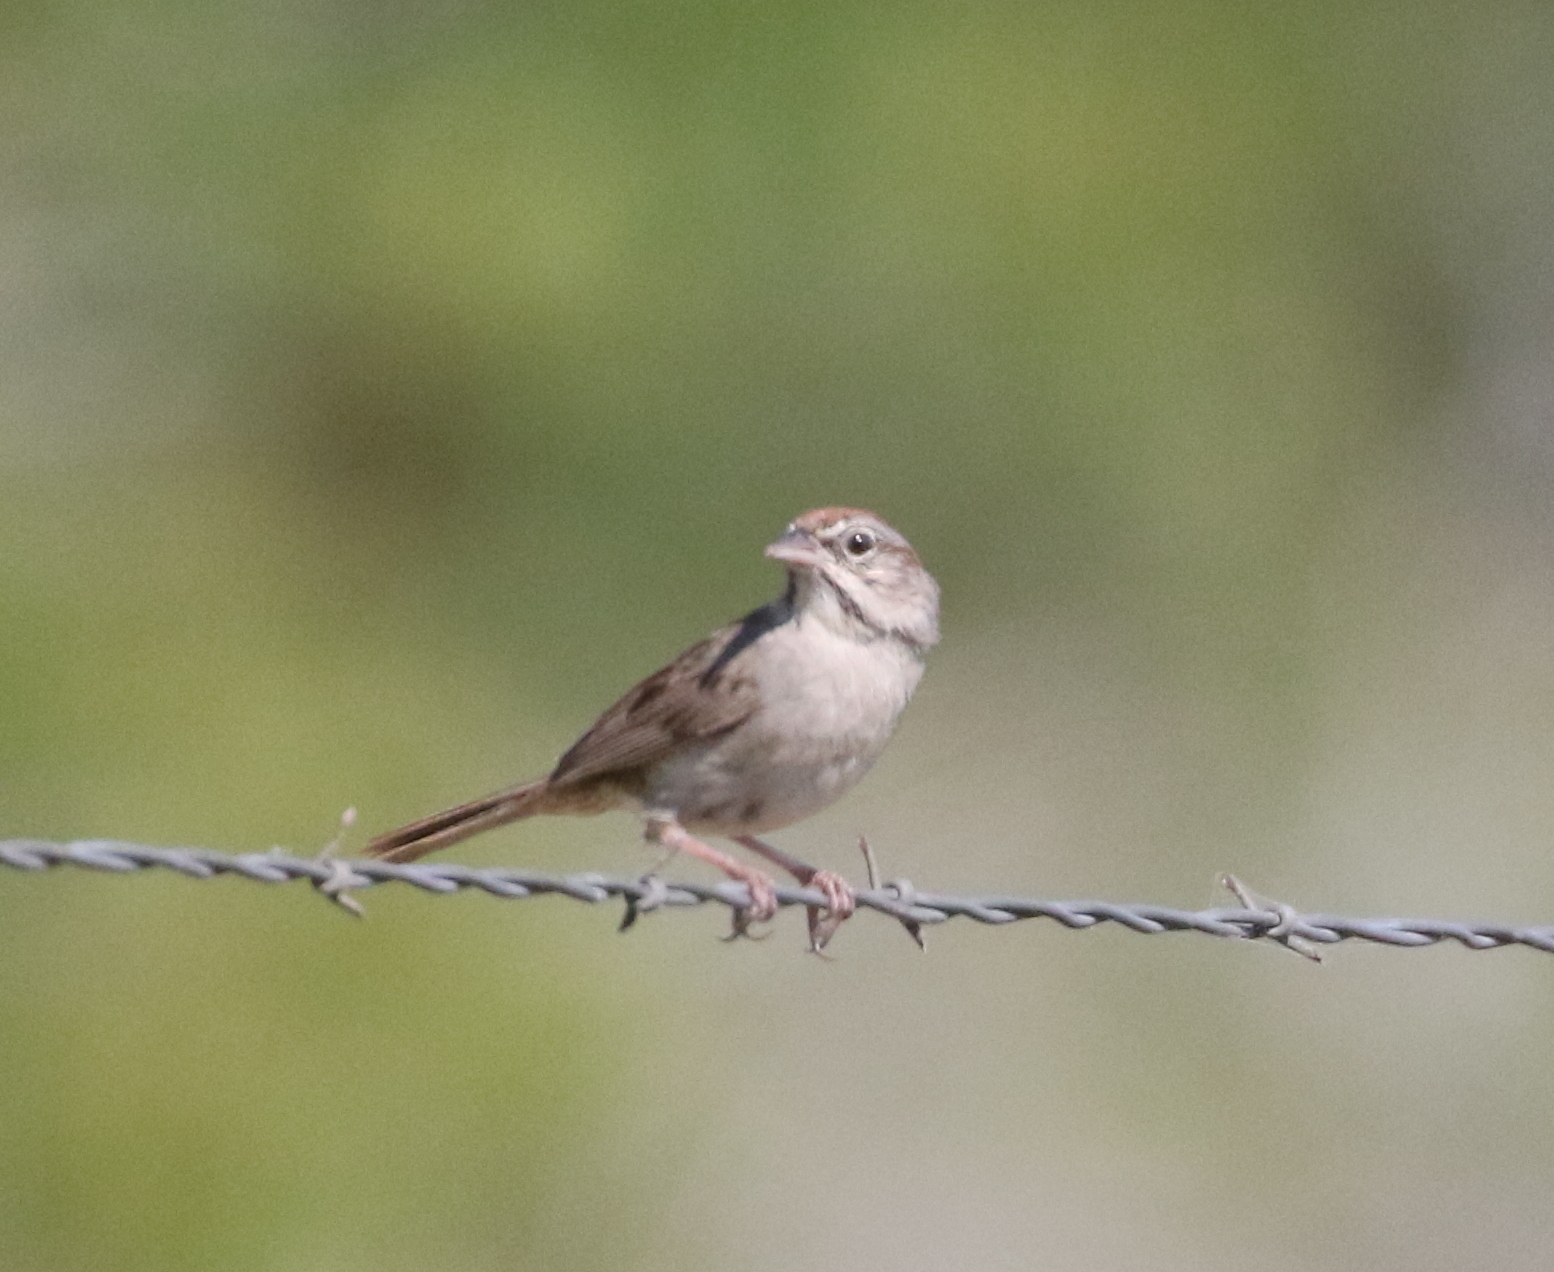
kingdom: Animalia
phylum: Chordata
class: Aves
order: Passeriformes
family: Passerellidae
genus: Aimophila
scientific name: Aimophila ruficeps
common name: Rufous-crowned sparrow
